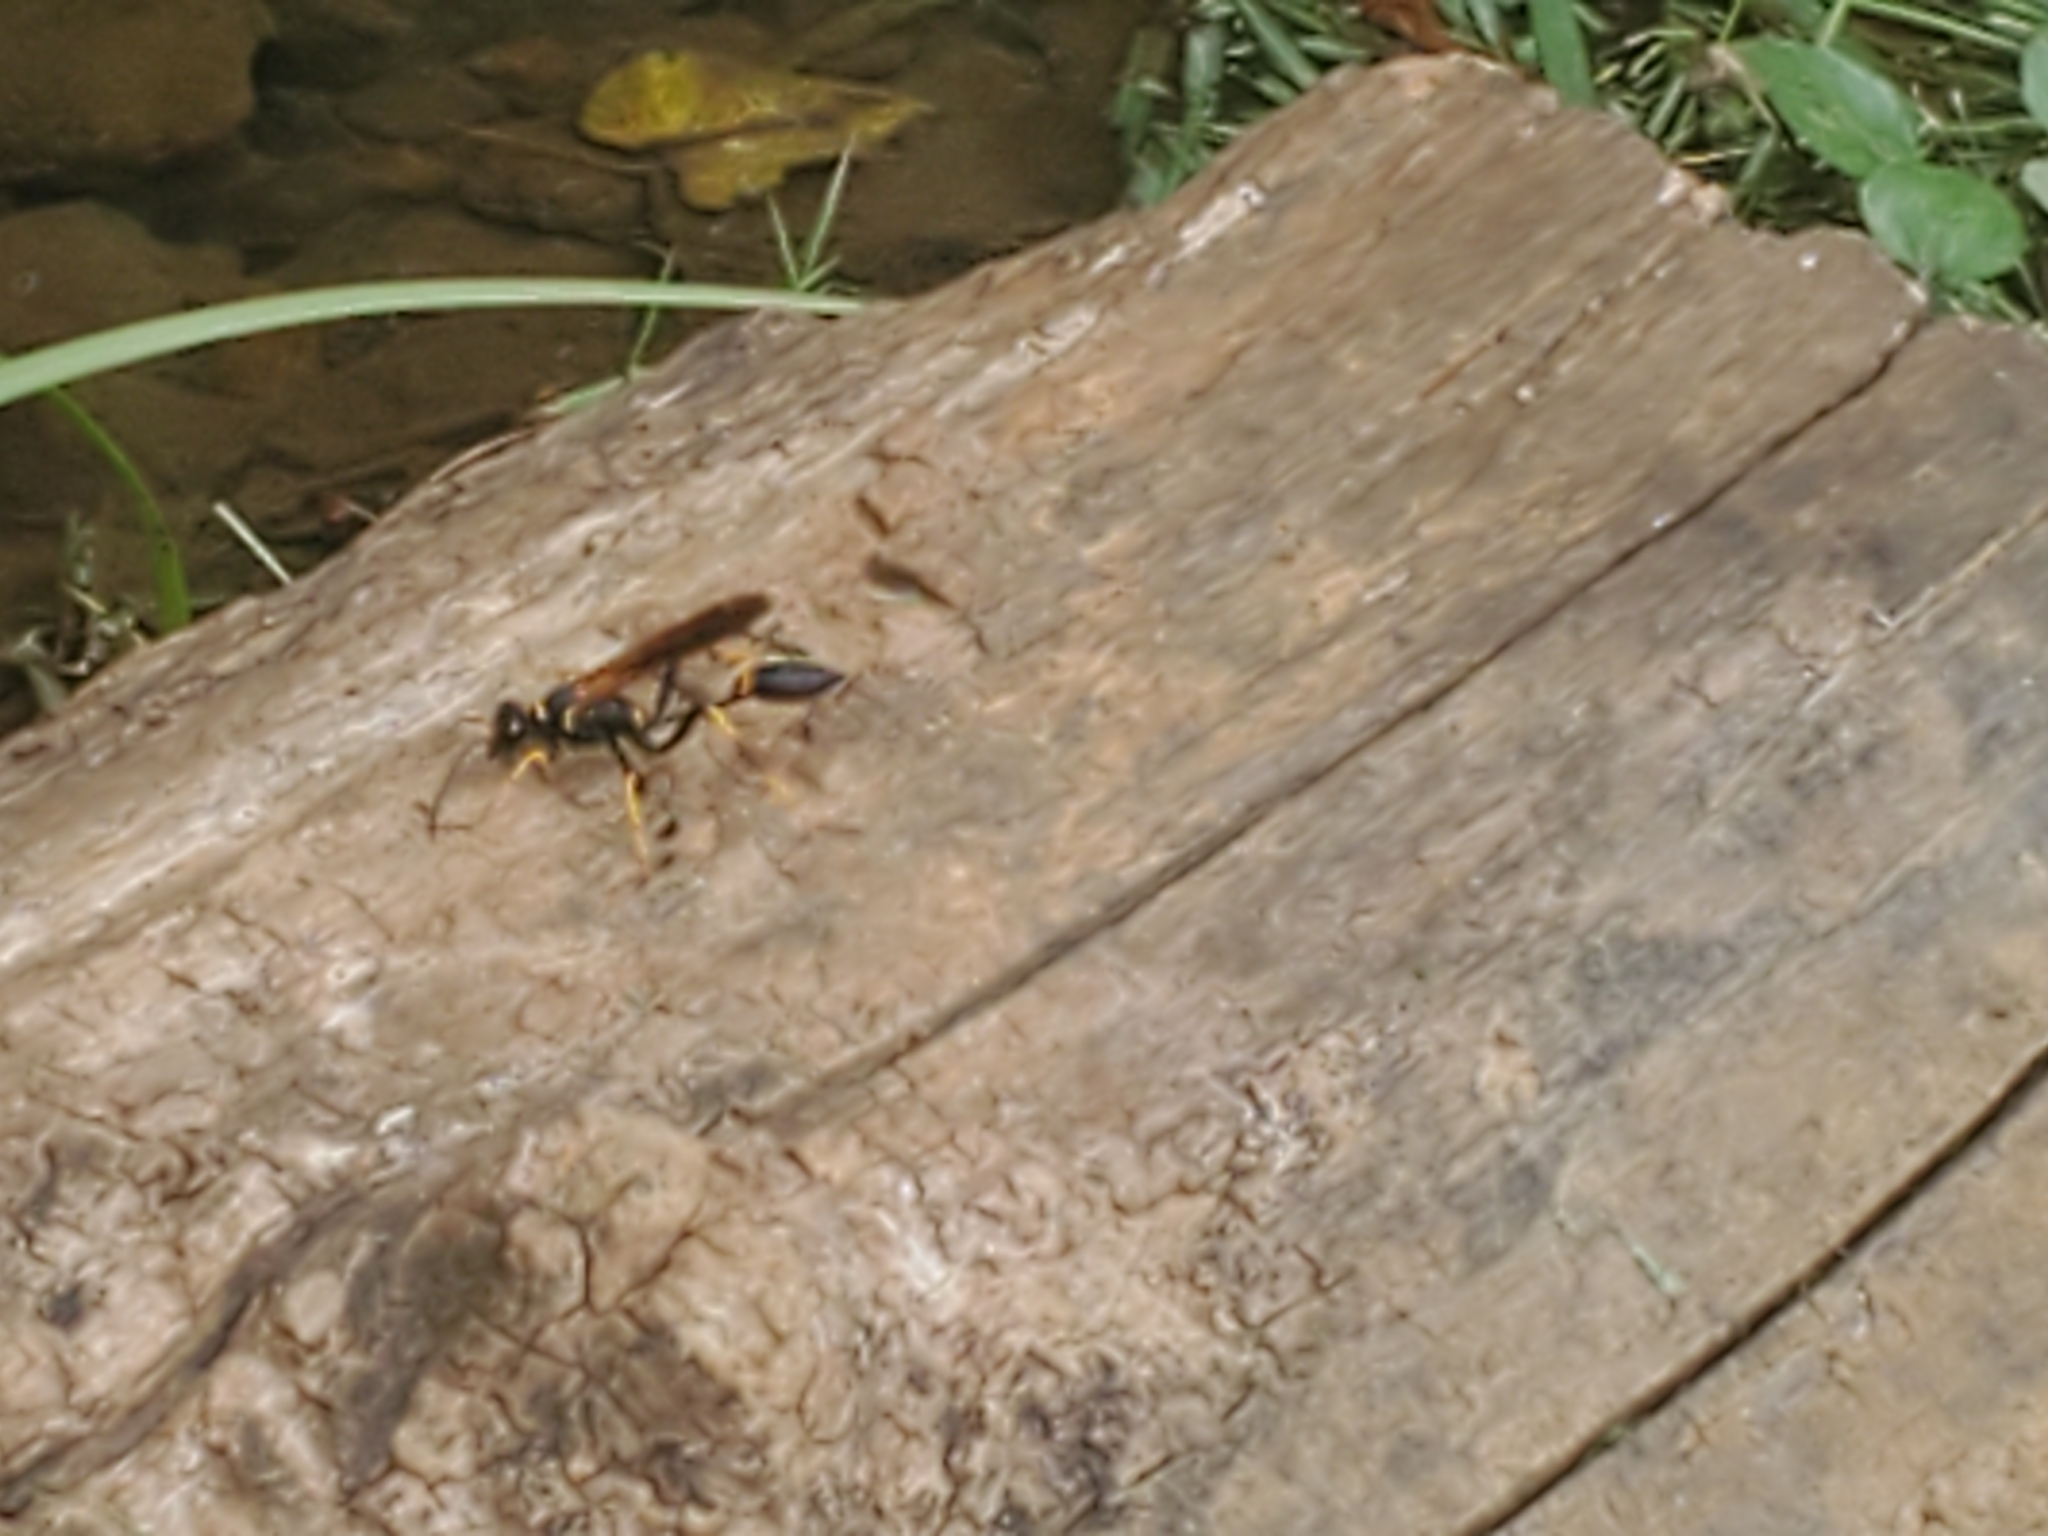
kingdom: Animalia
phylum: Arthropoda
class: Insecta
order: Hymenoptera
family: Sphecidae
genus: Sceliphron
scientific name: Sceliphron caementarium
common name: Mud dauber
